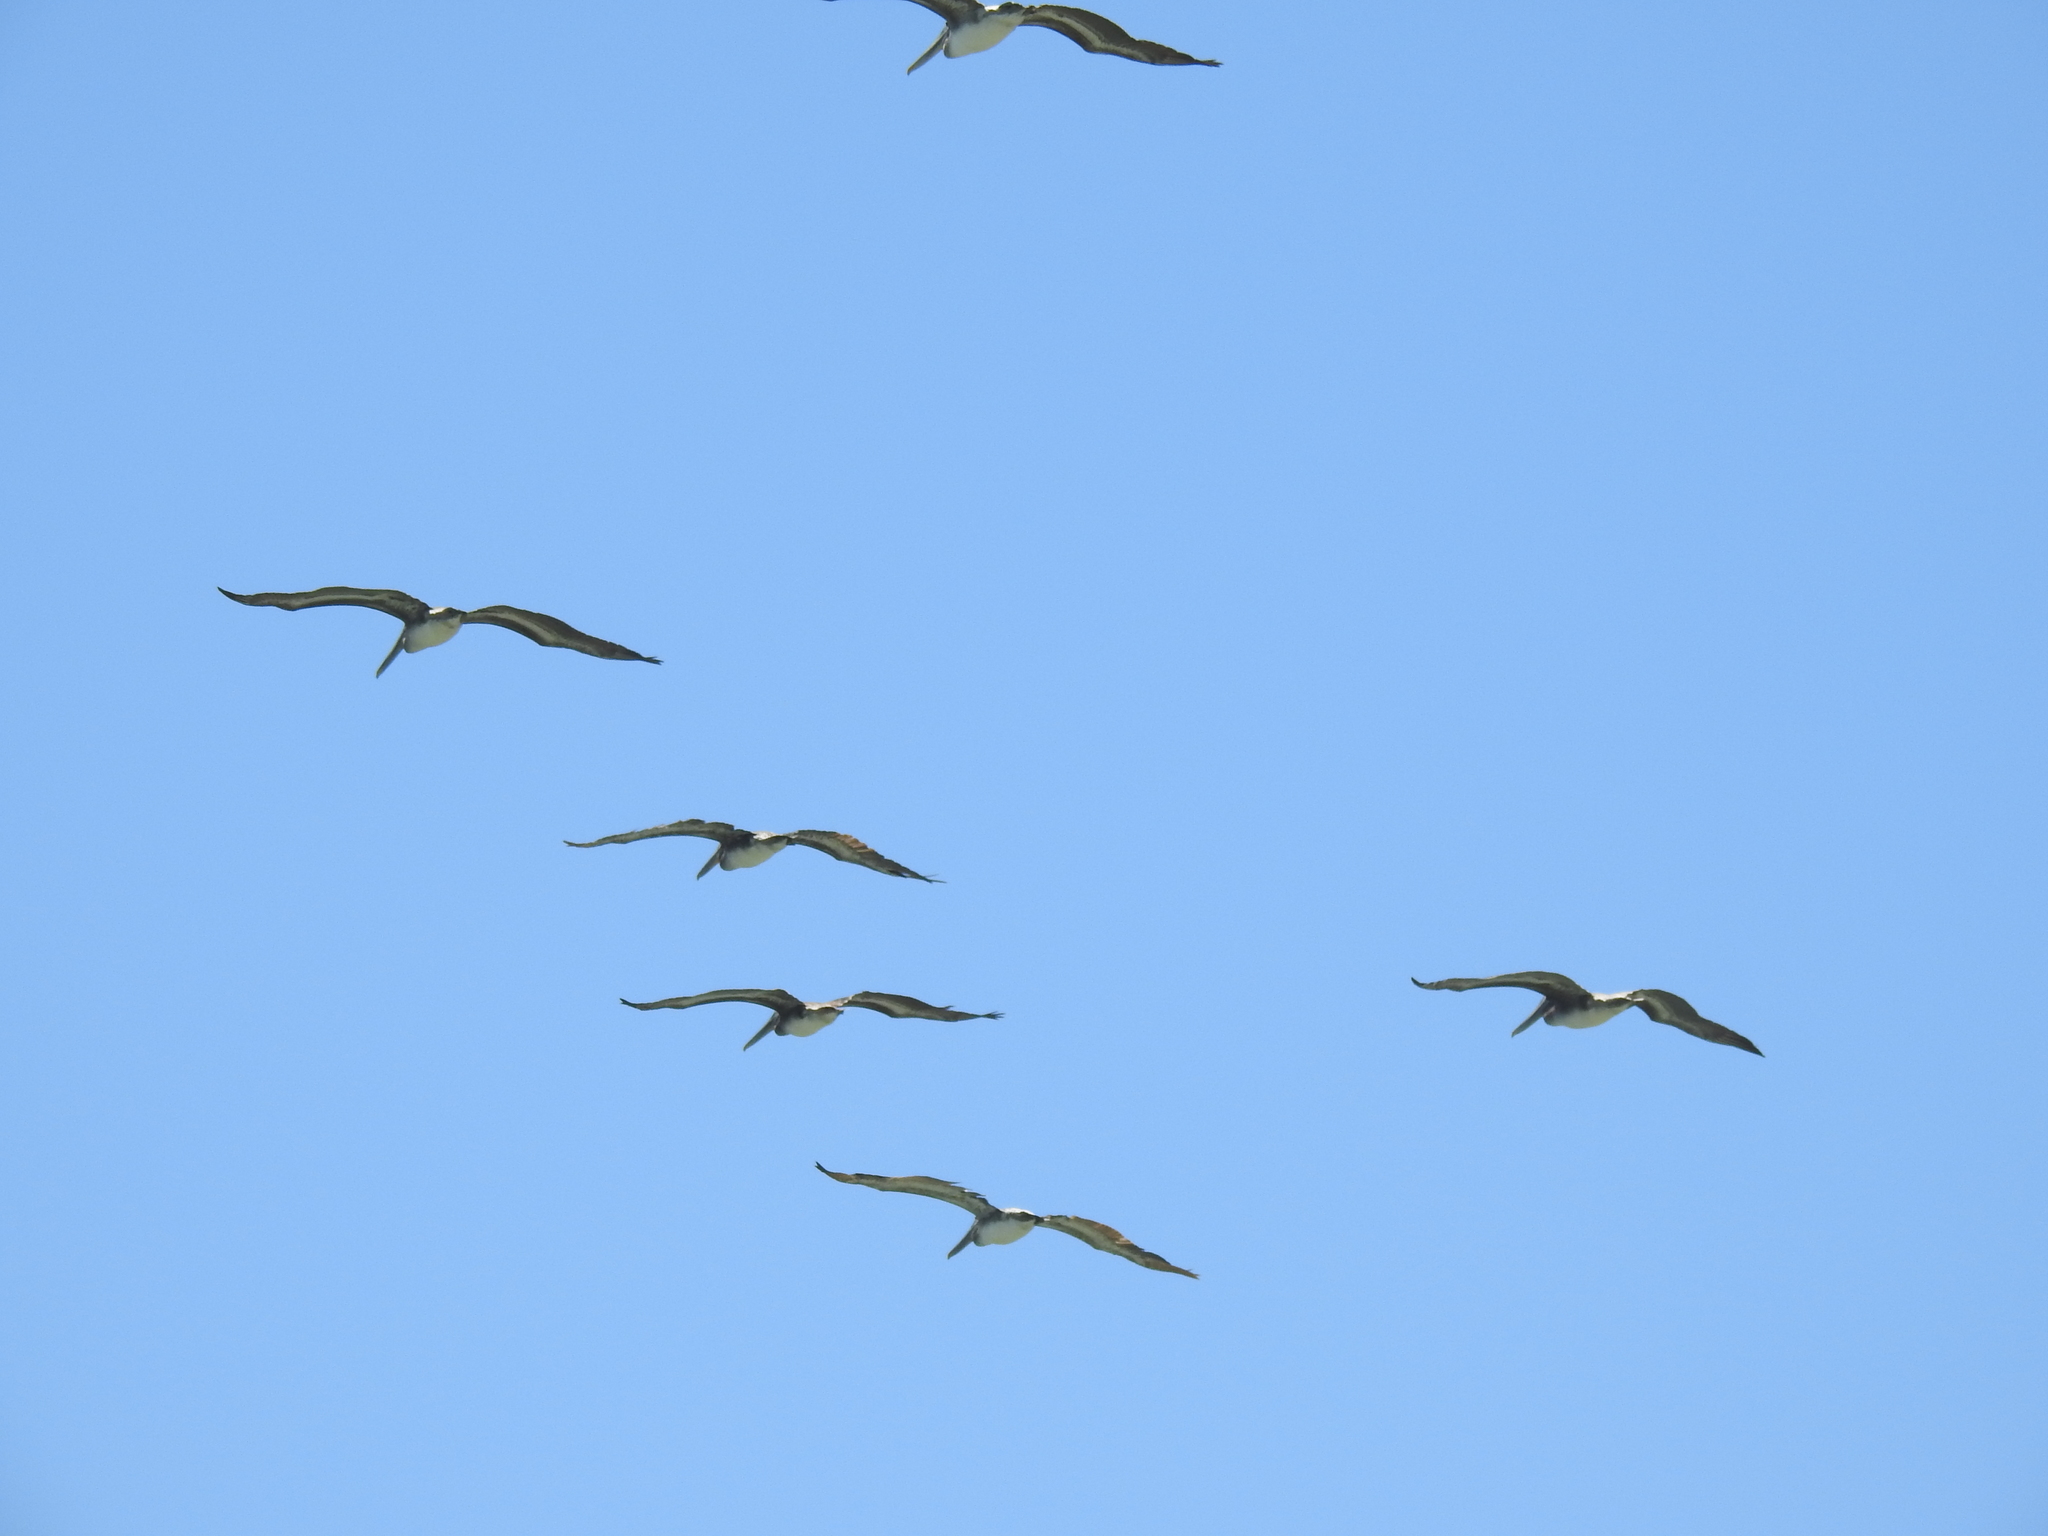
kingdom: Animalia
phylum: Chordata
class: Aves
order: Pelecaniformes
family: Pelecanidae
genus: Pelecanus
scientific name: Pelecanus occidentalis
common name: Brown pelican
